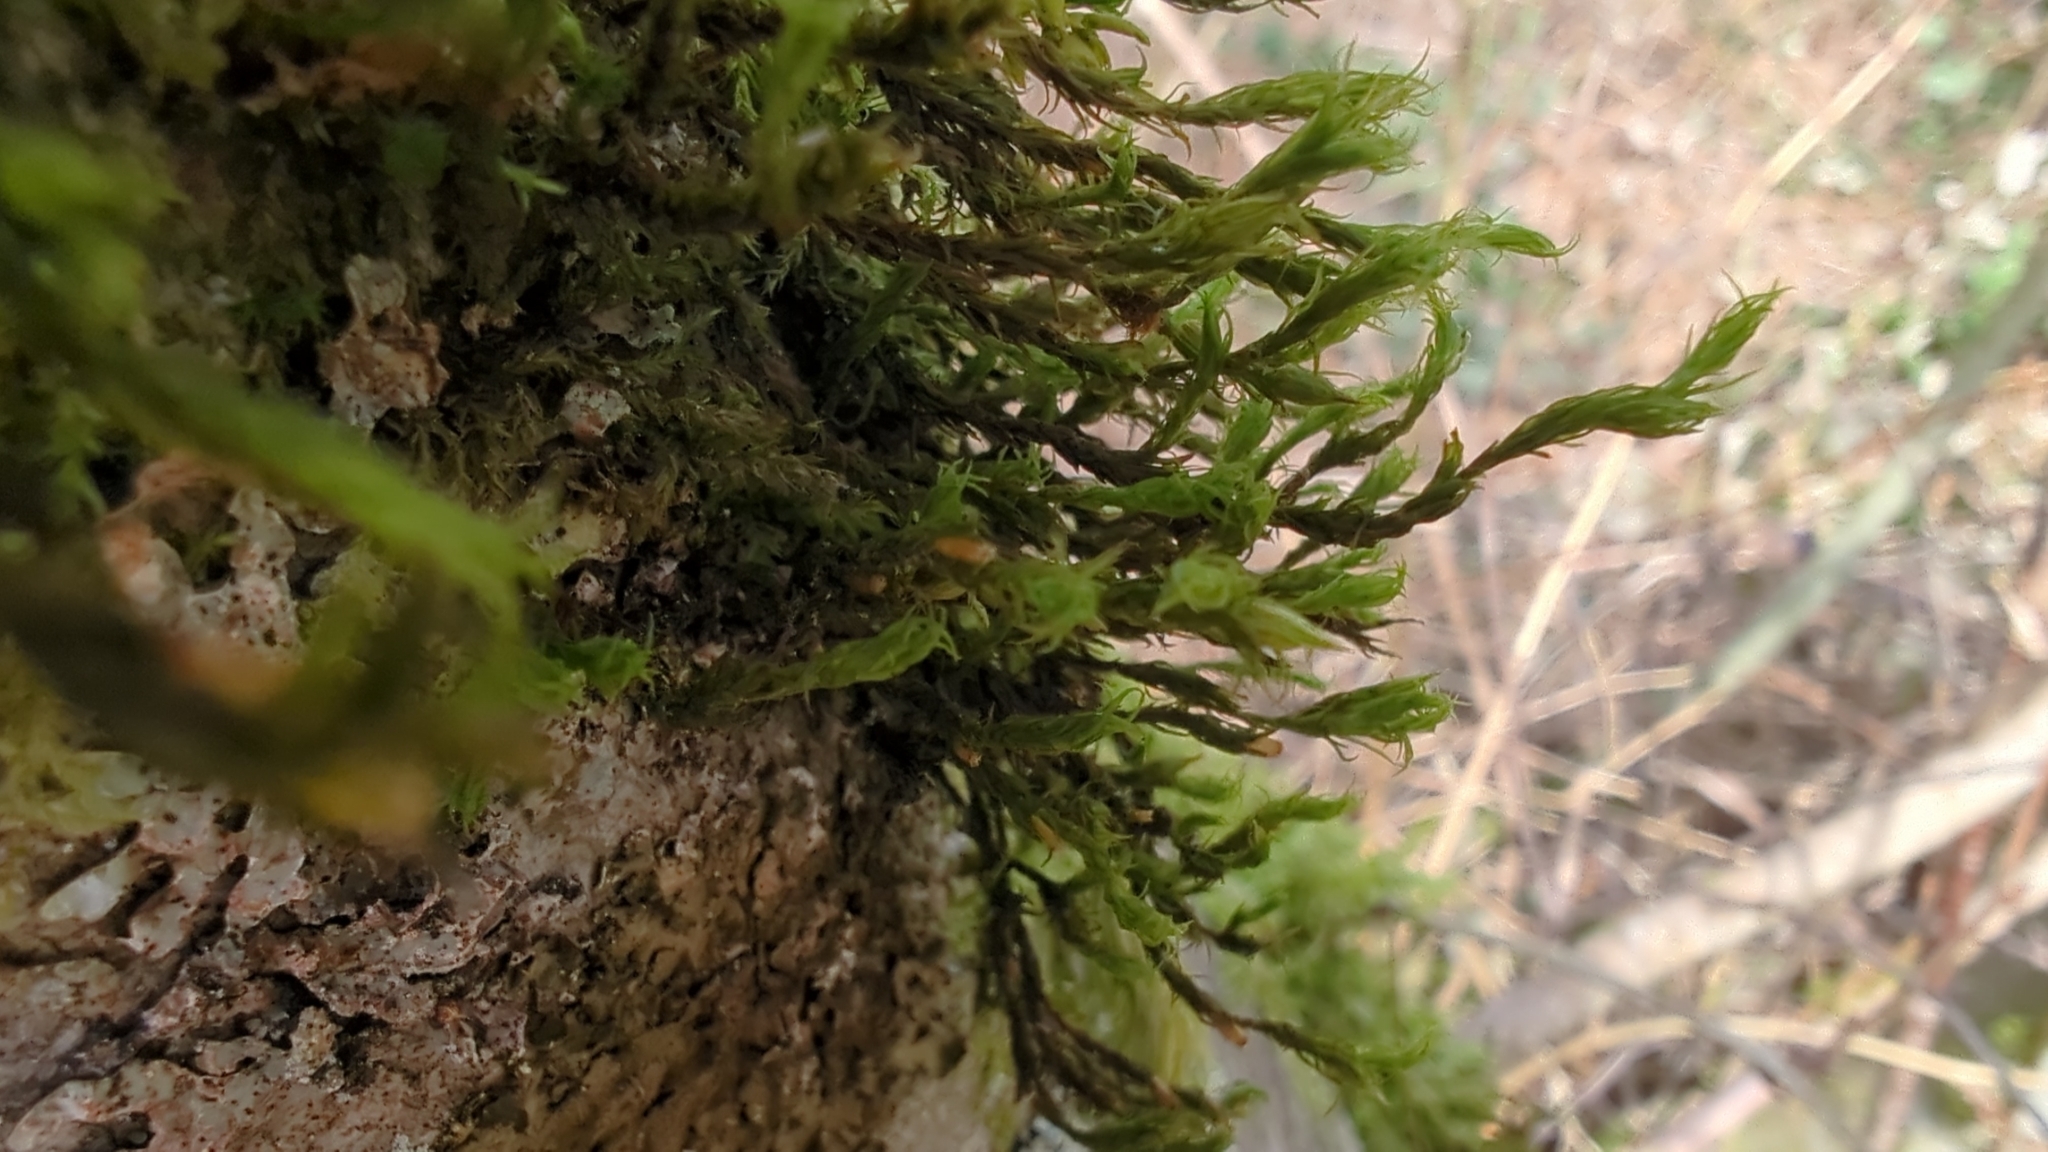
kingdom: Plantae
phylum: Bryophyta
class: Bryopsida
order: Orthotrichales
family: Orthotrichaceae
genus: Pulvigera
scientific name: Pulvigera papillosa
